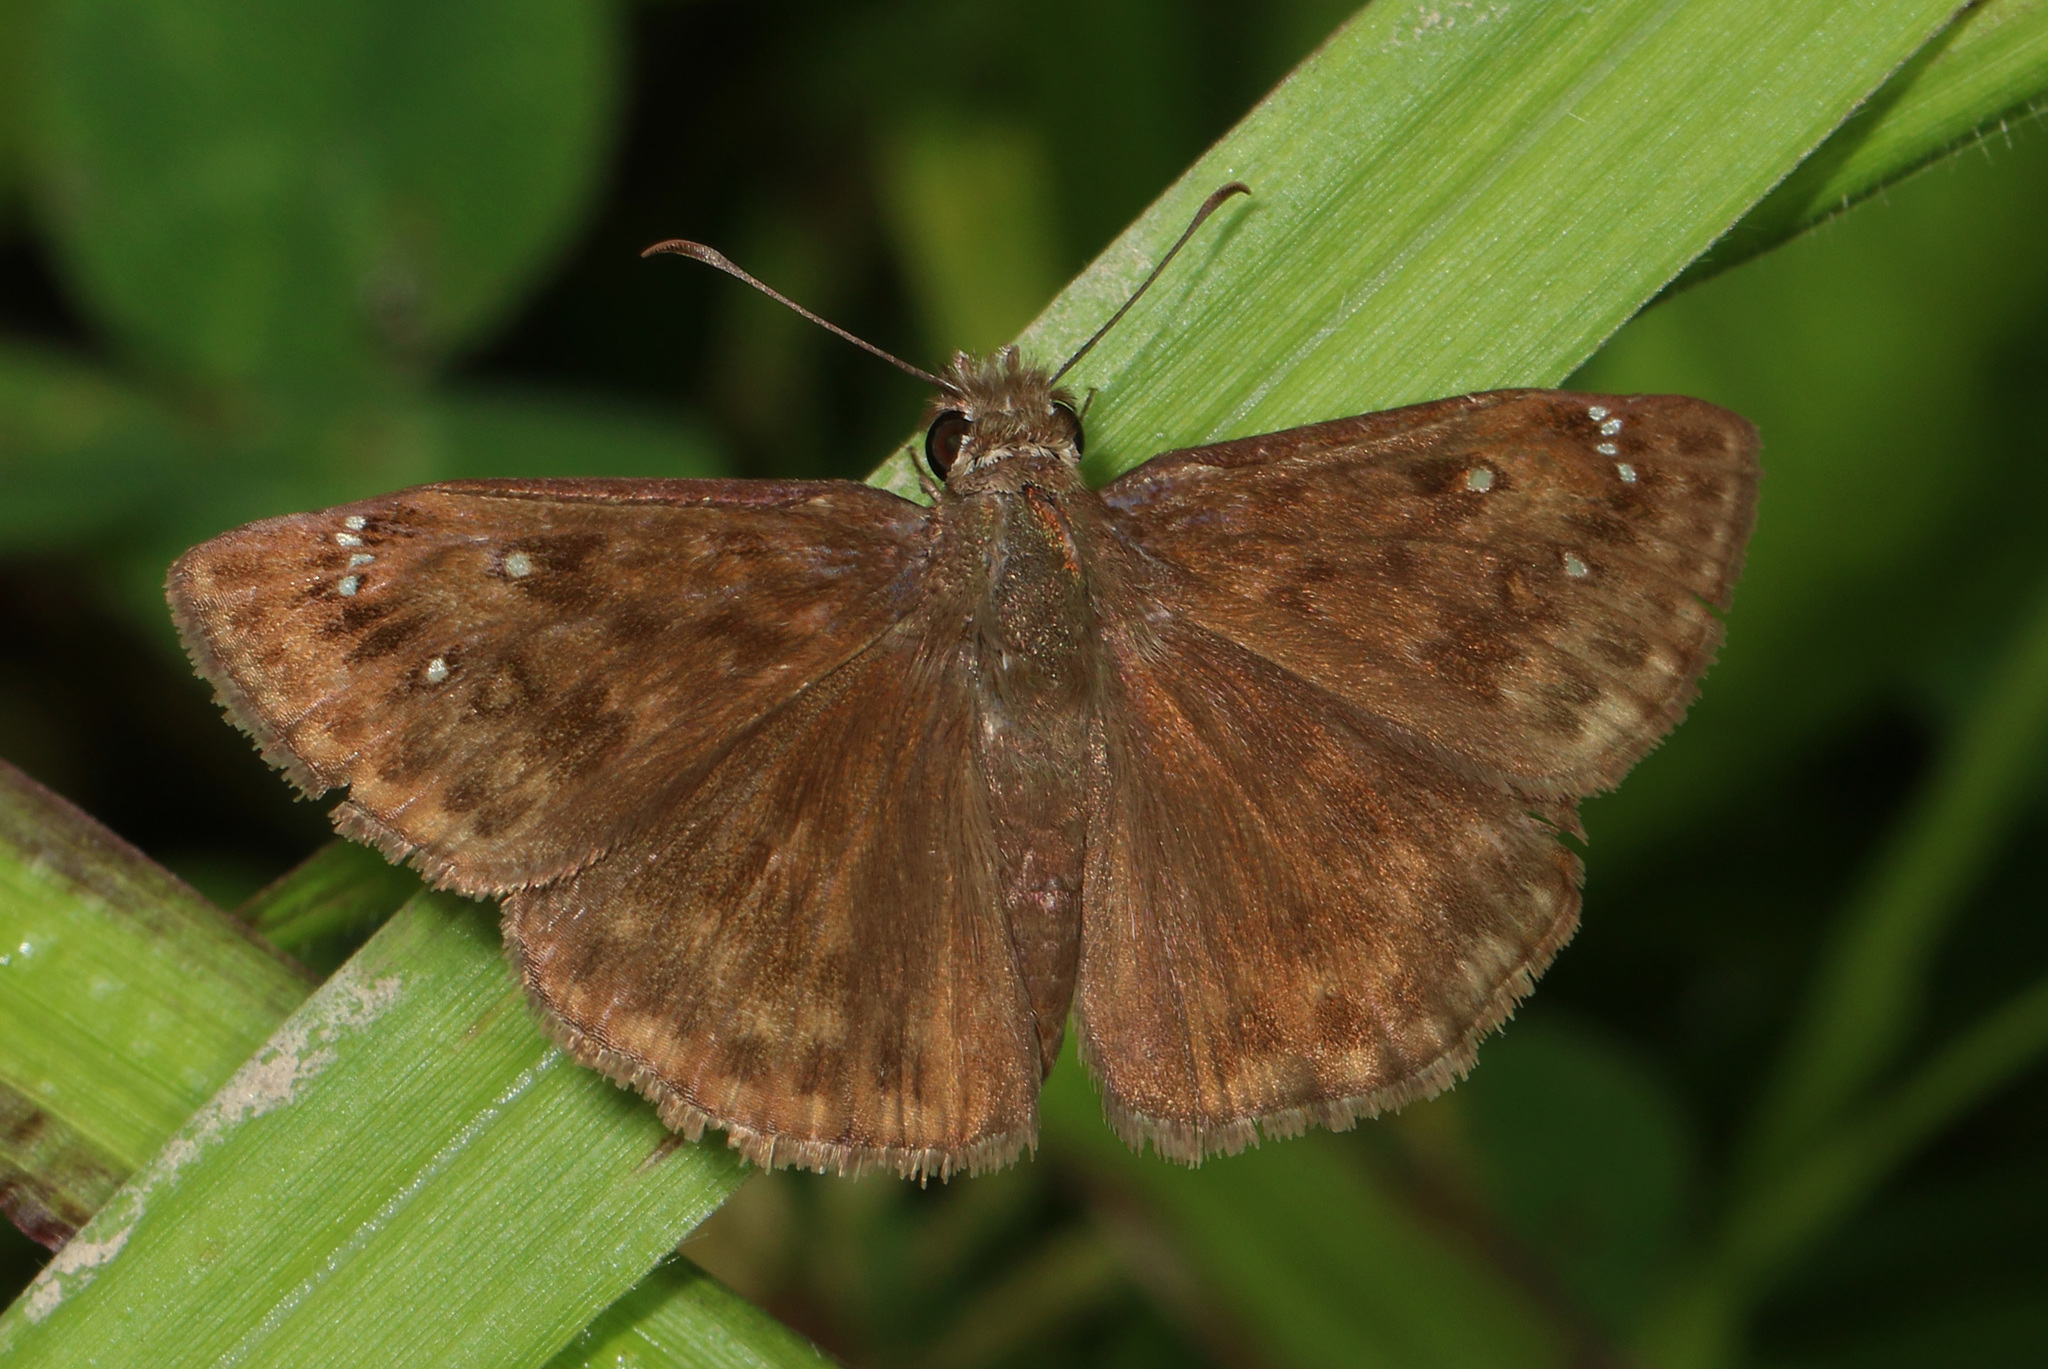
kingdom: Animalia
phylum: Arthropoda
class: Insecta
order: Lepidoptera
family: Hesperiidae
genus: Erynnis
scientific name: Erynnis horatius
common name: Horace's duskywing
